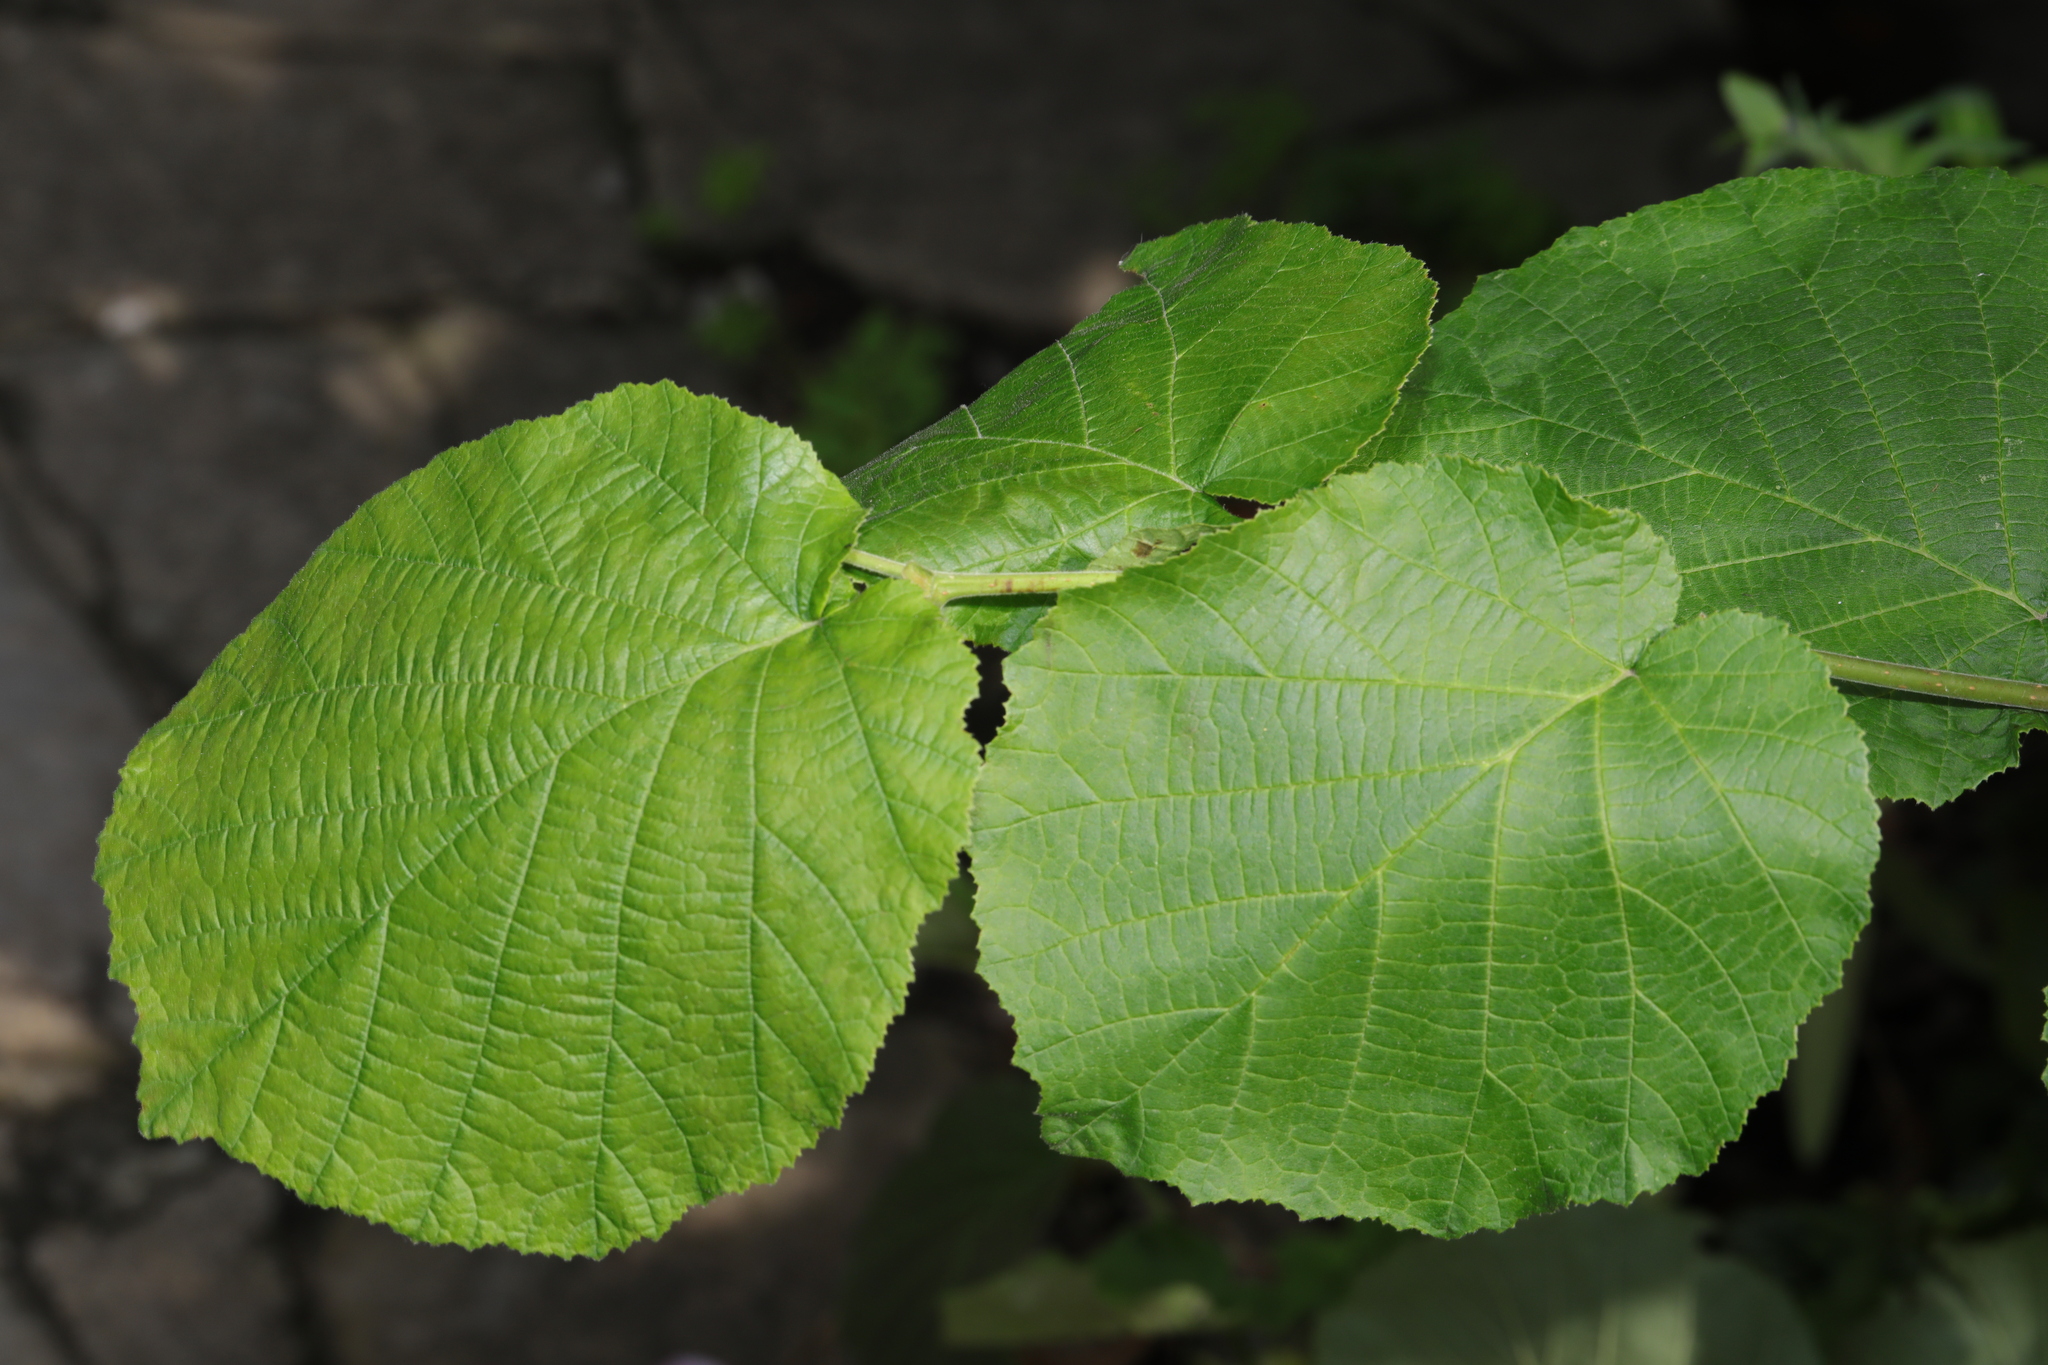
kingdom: Plantae
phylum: Tracheophyta
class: Magnoliopsida
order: Fagales
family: Betulaceae
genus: Corylus
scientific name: Corylus avellana
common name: European hazel
